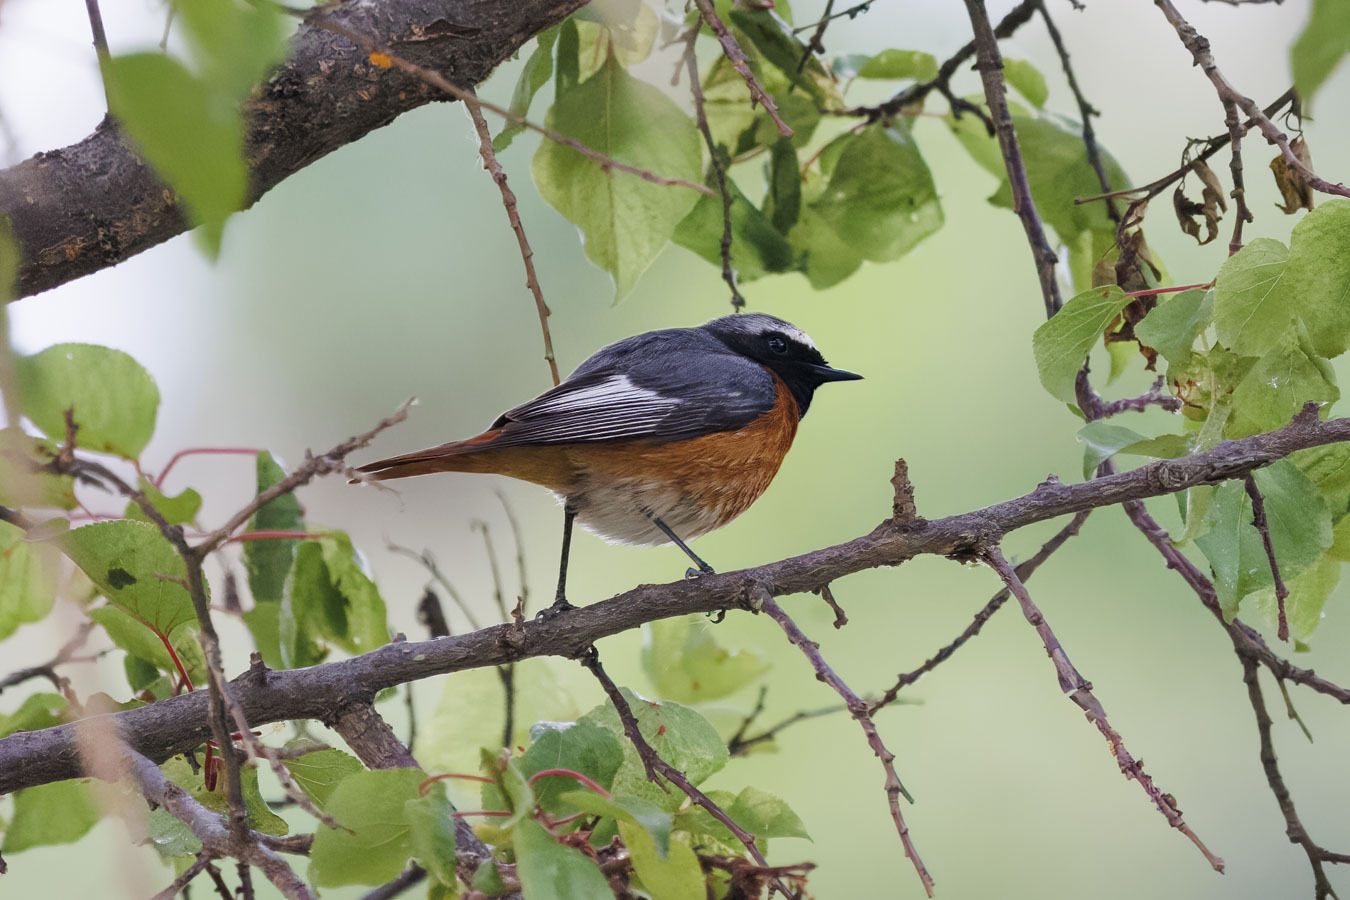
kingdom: Animalia
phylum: Chordata
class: Aves
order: Passeriformes
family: Muscicapidae
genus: Phoenicurus
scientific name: Phoenicurus phoenicurus
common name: Common redstart
